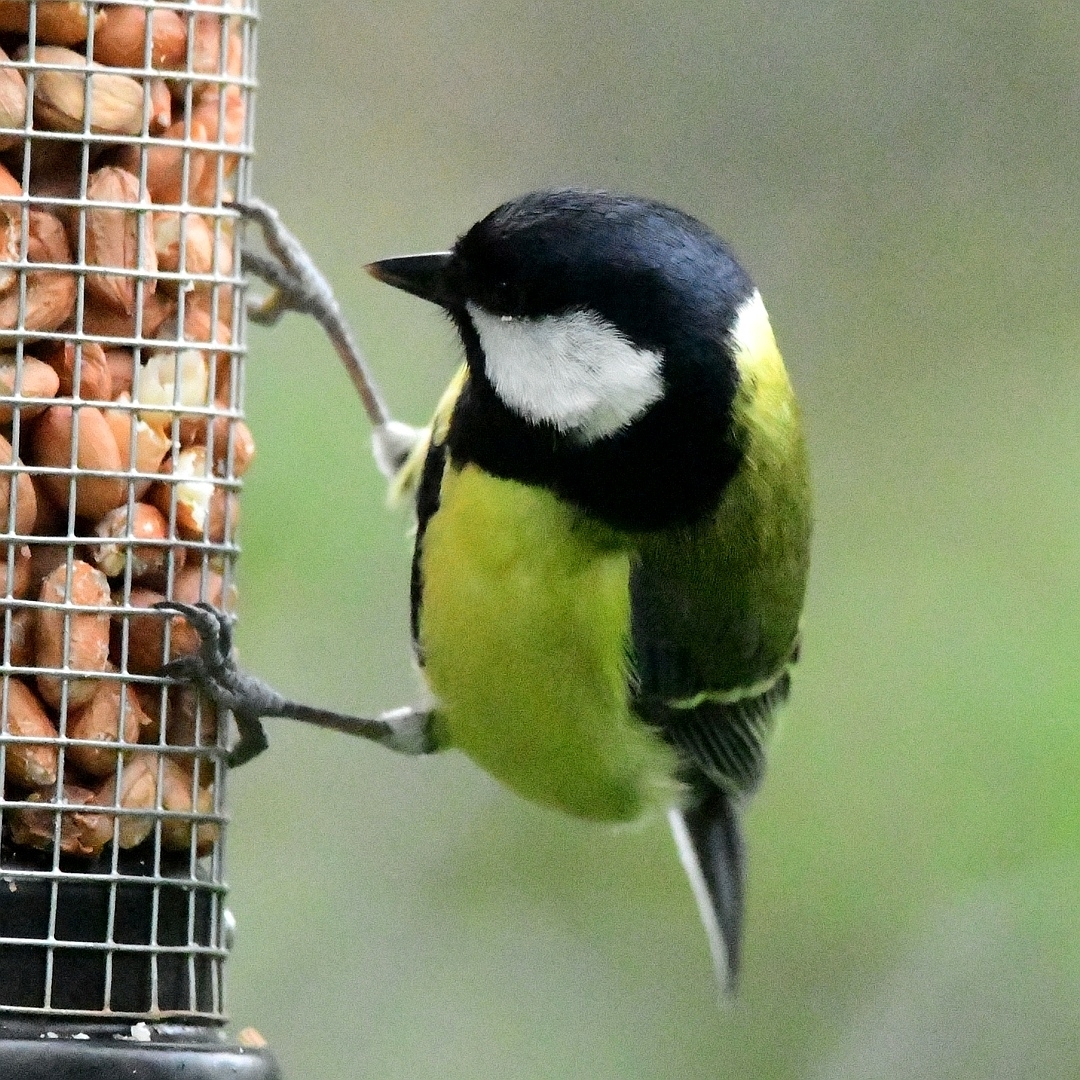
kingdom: Animalia
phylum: Chordata
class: Aves
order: Passeriformes
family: Paridae
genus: Parus
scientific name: Parus major
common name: Great tit
